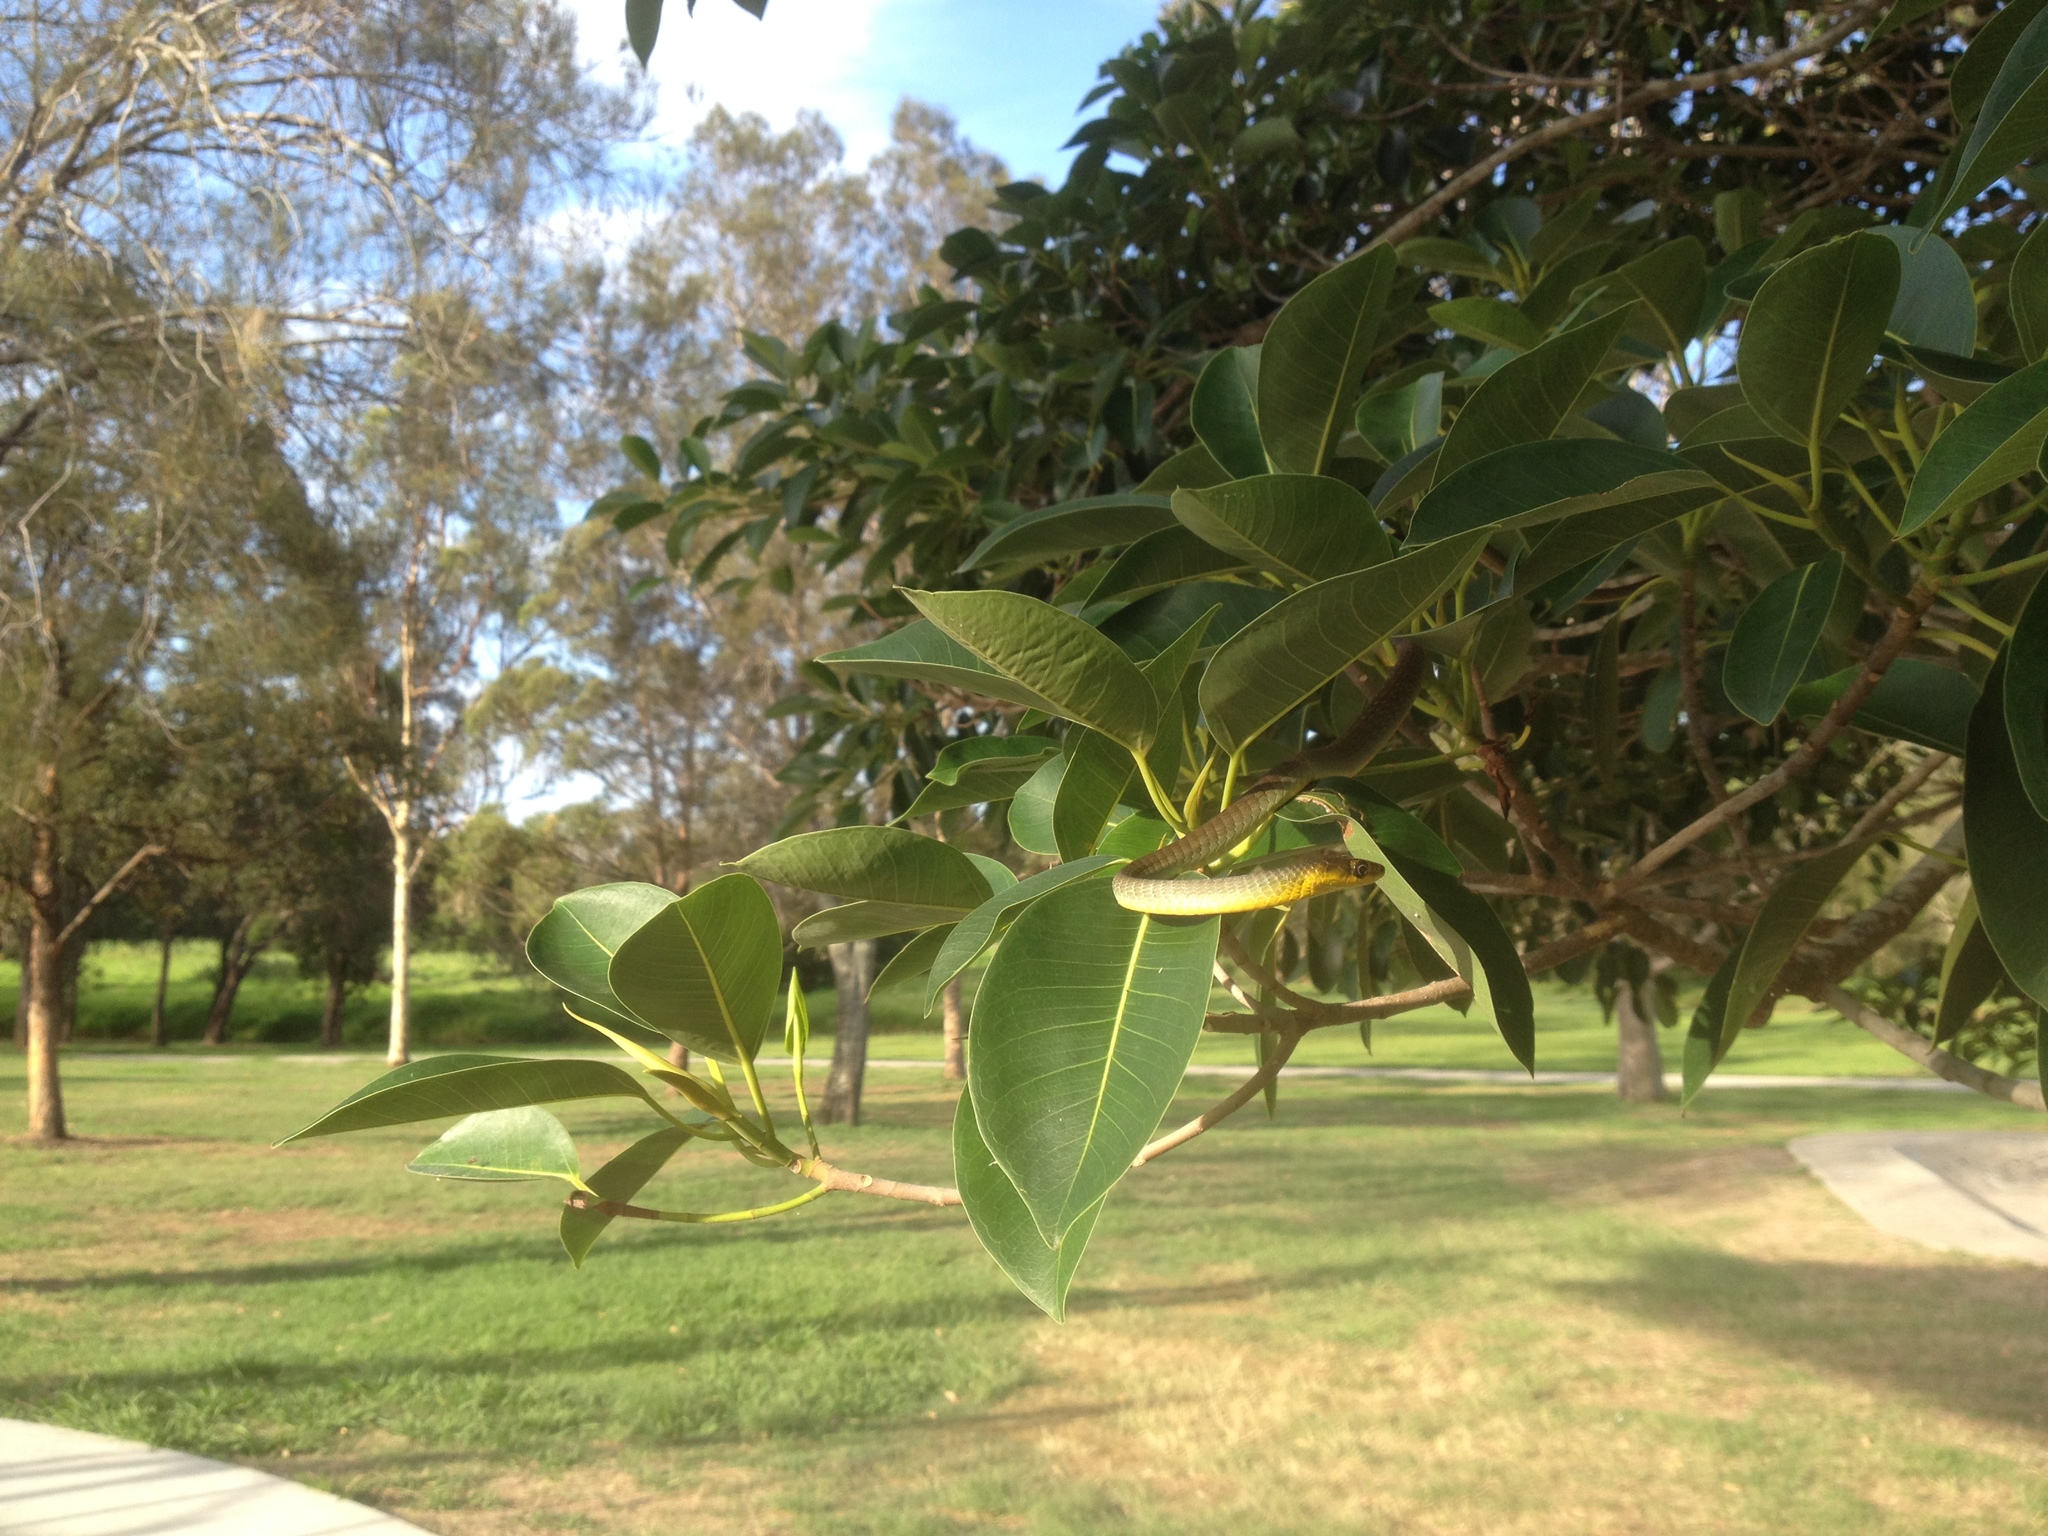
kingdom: Animalia
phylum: Chordata
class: Squamata
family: Colubridae
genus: Dendrelaphis
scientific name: Dendrelaphis punctulatus
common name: Common tree snake
